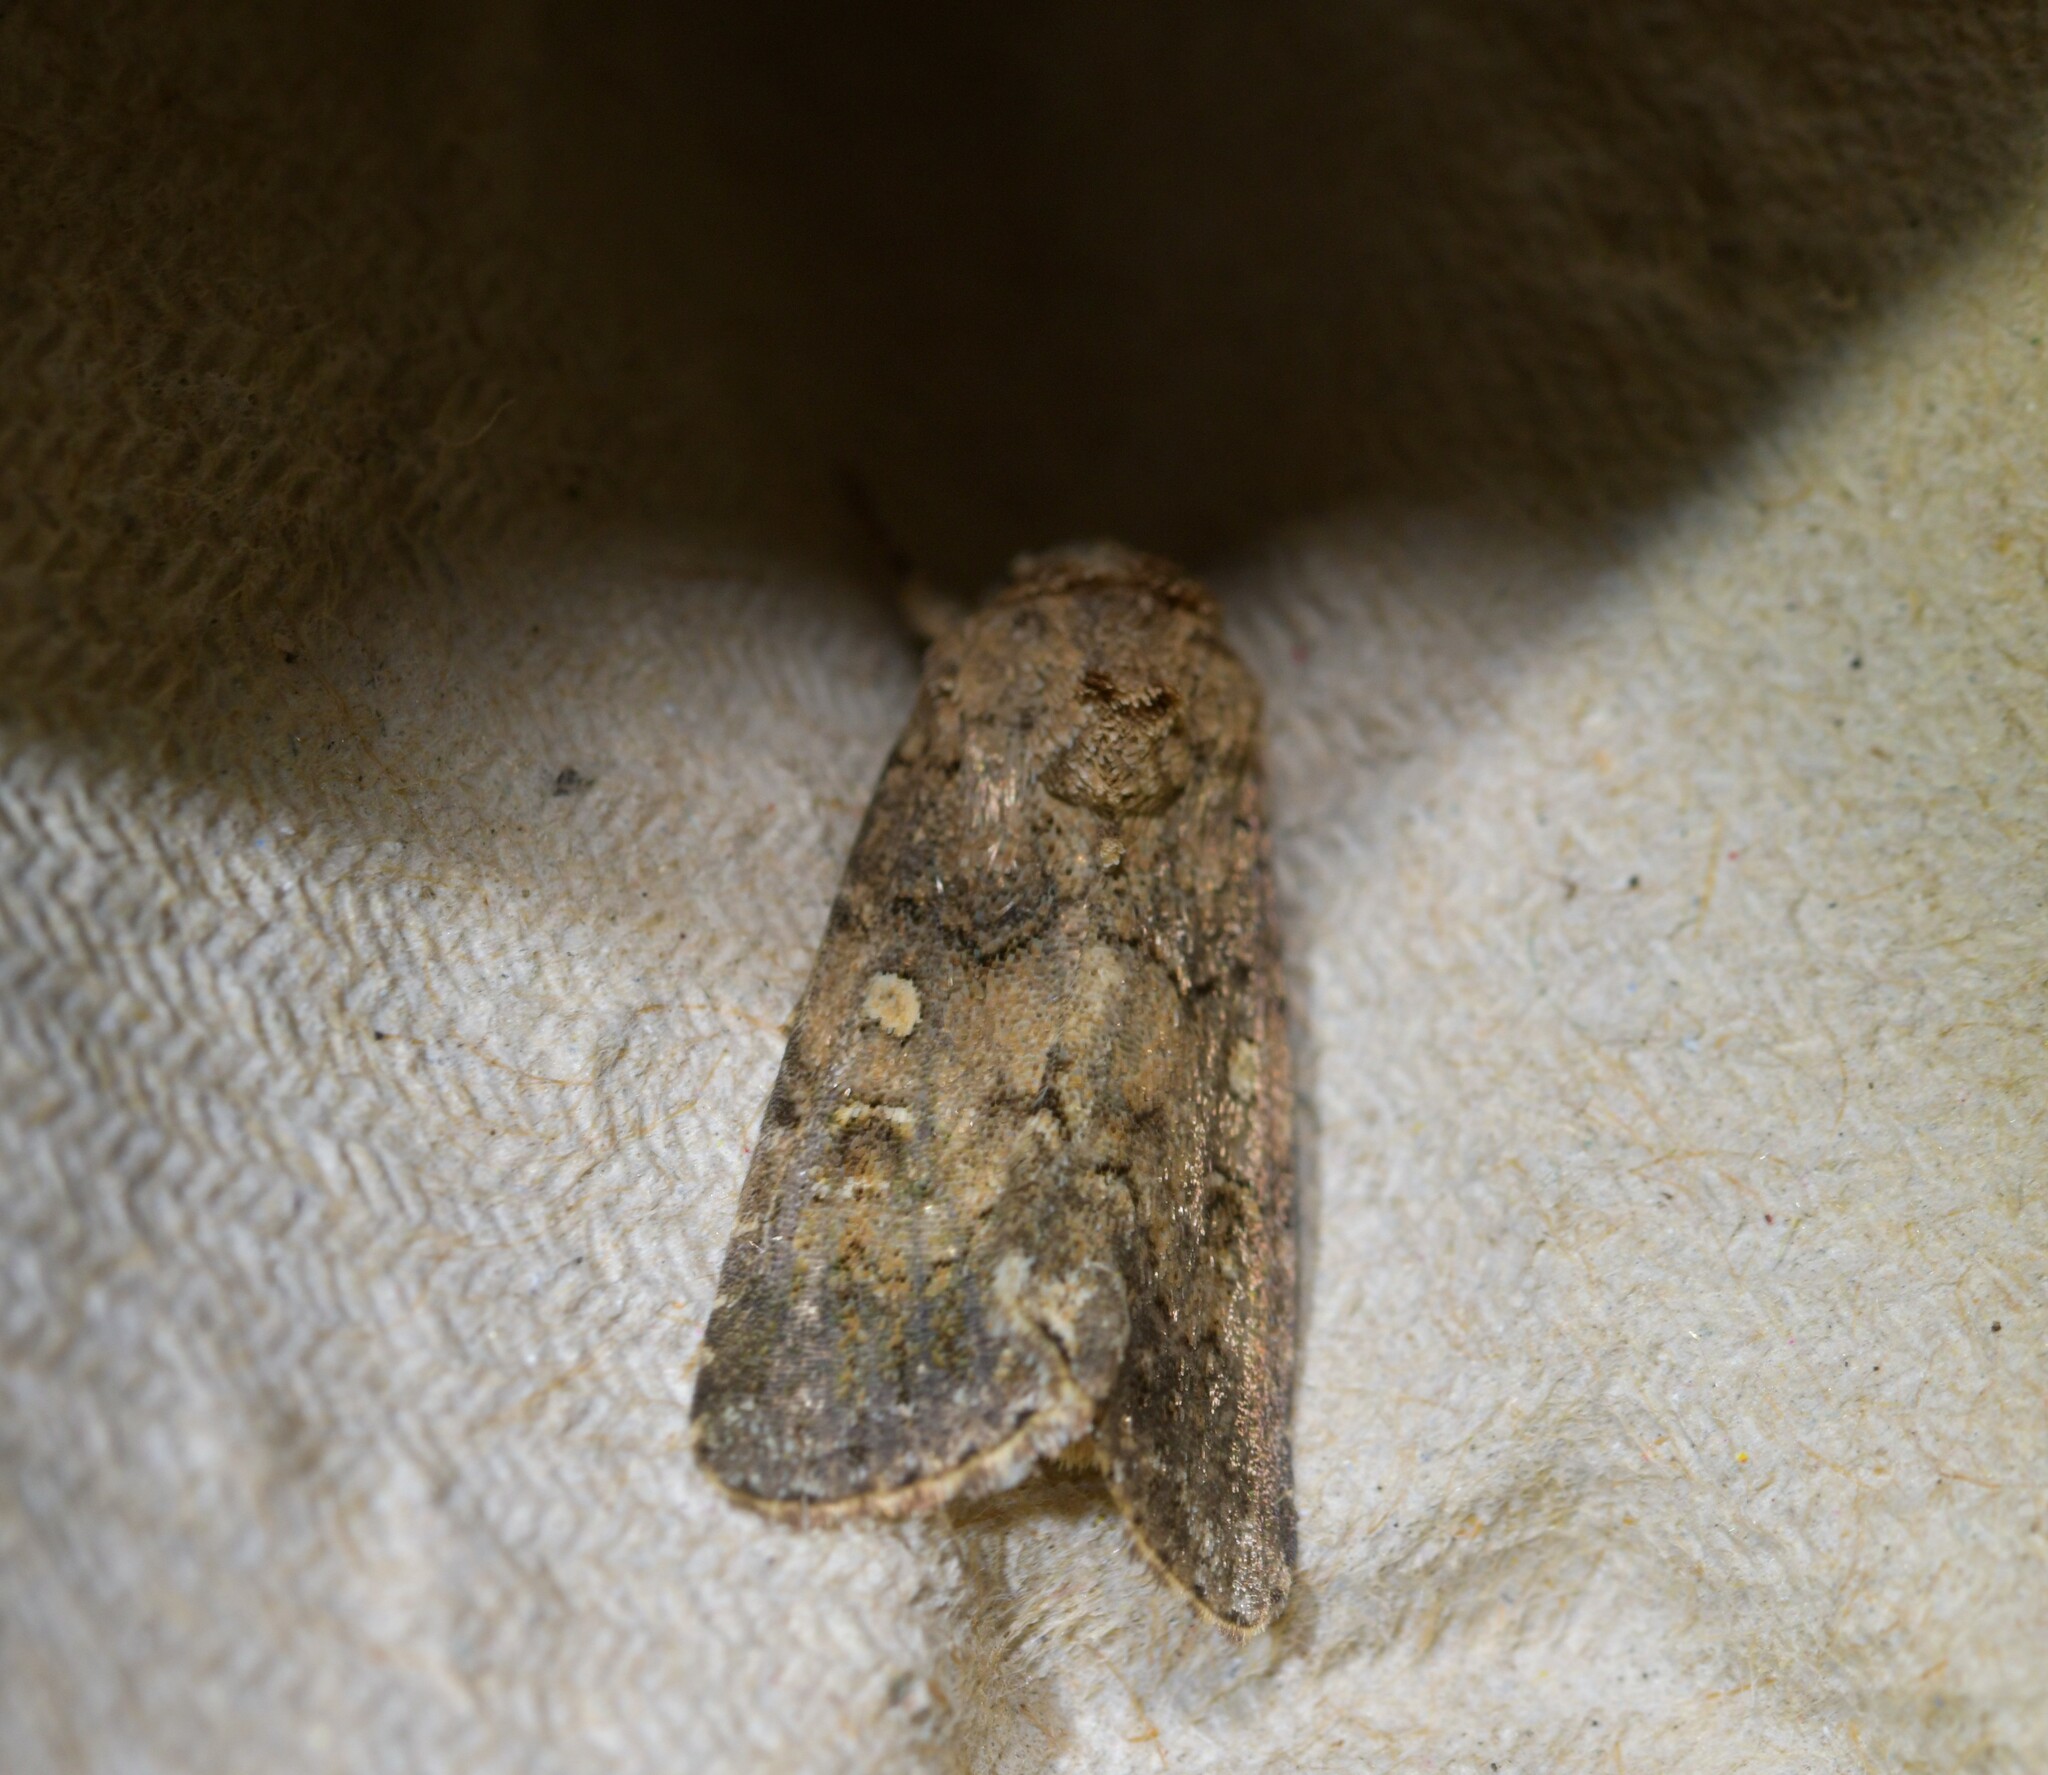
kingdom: Animalia
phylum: Arthropoda
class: Insecta
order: Lepidoptera
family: Noctuidae
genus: Spodoptera
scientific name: Spodoptera cilium
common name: Dark mottled willow
